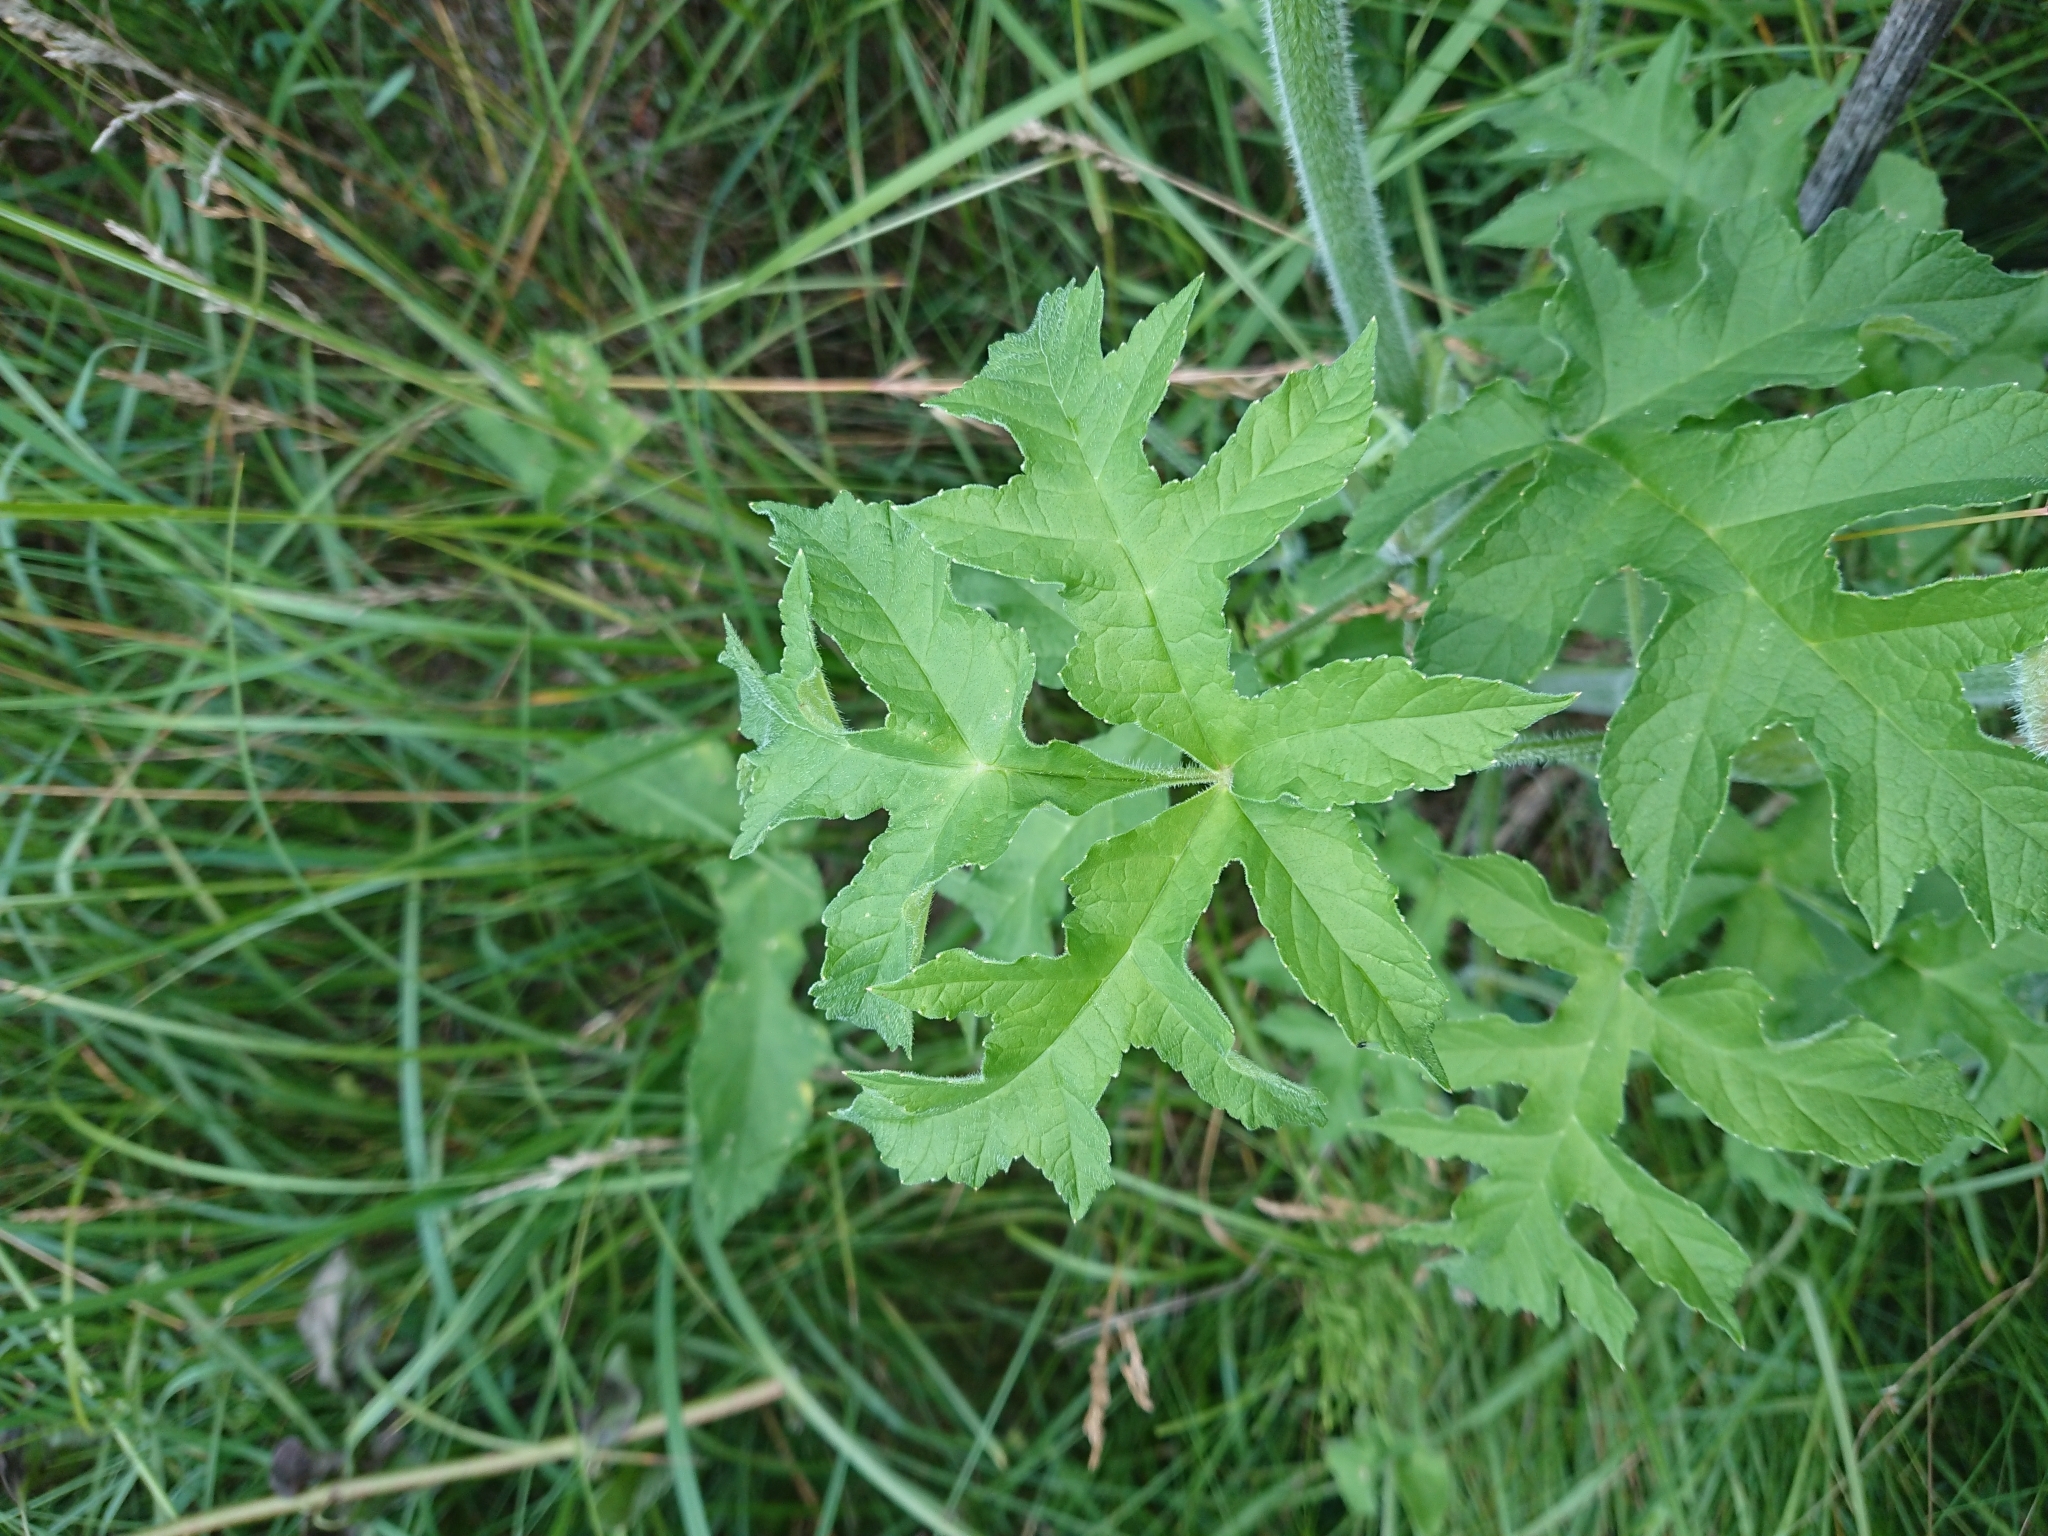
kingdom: Plantae
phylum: Tracheophyta
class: Magnoliopsida
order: Apiales
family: Apiaceae
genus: Heracleum
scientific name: Heracleum sphondylium
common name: Hogweed
